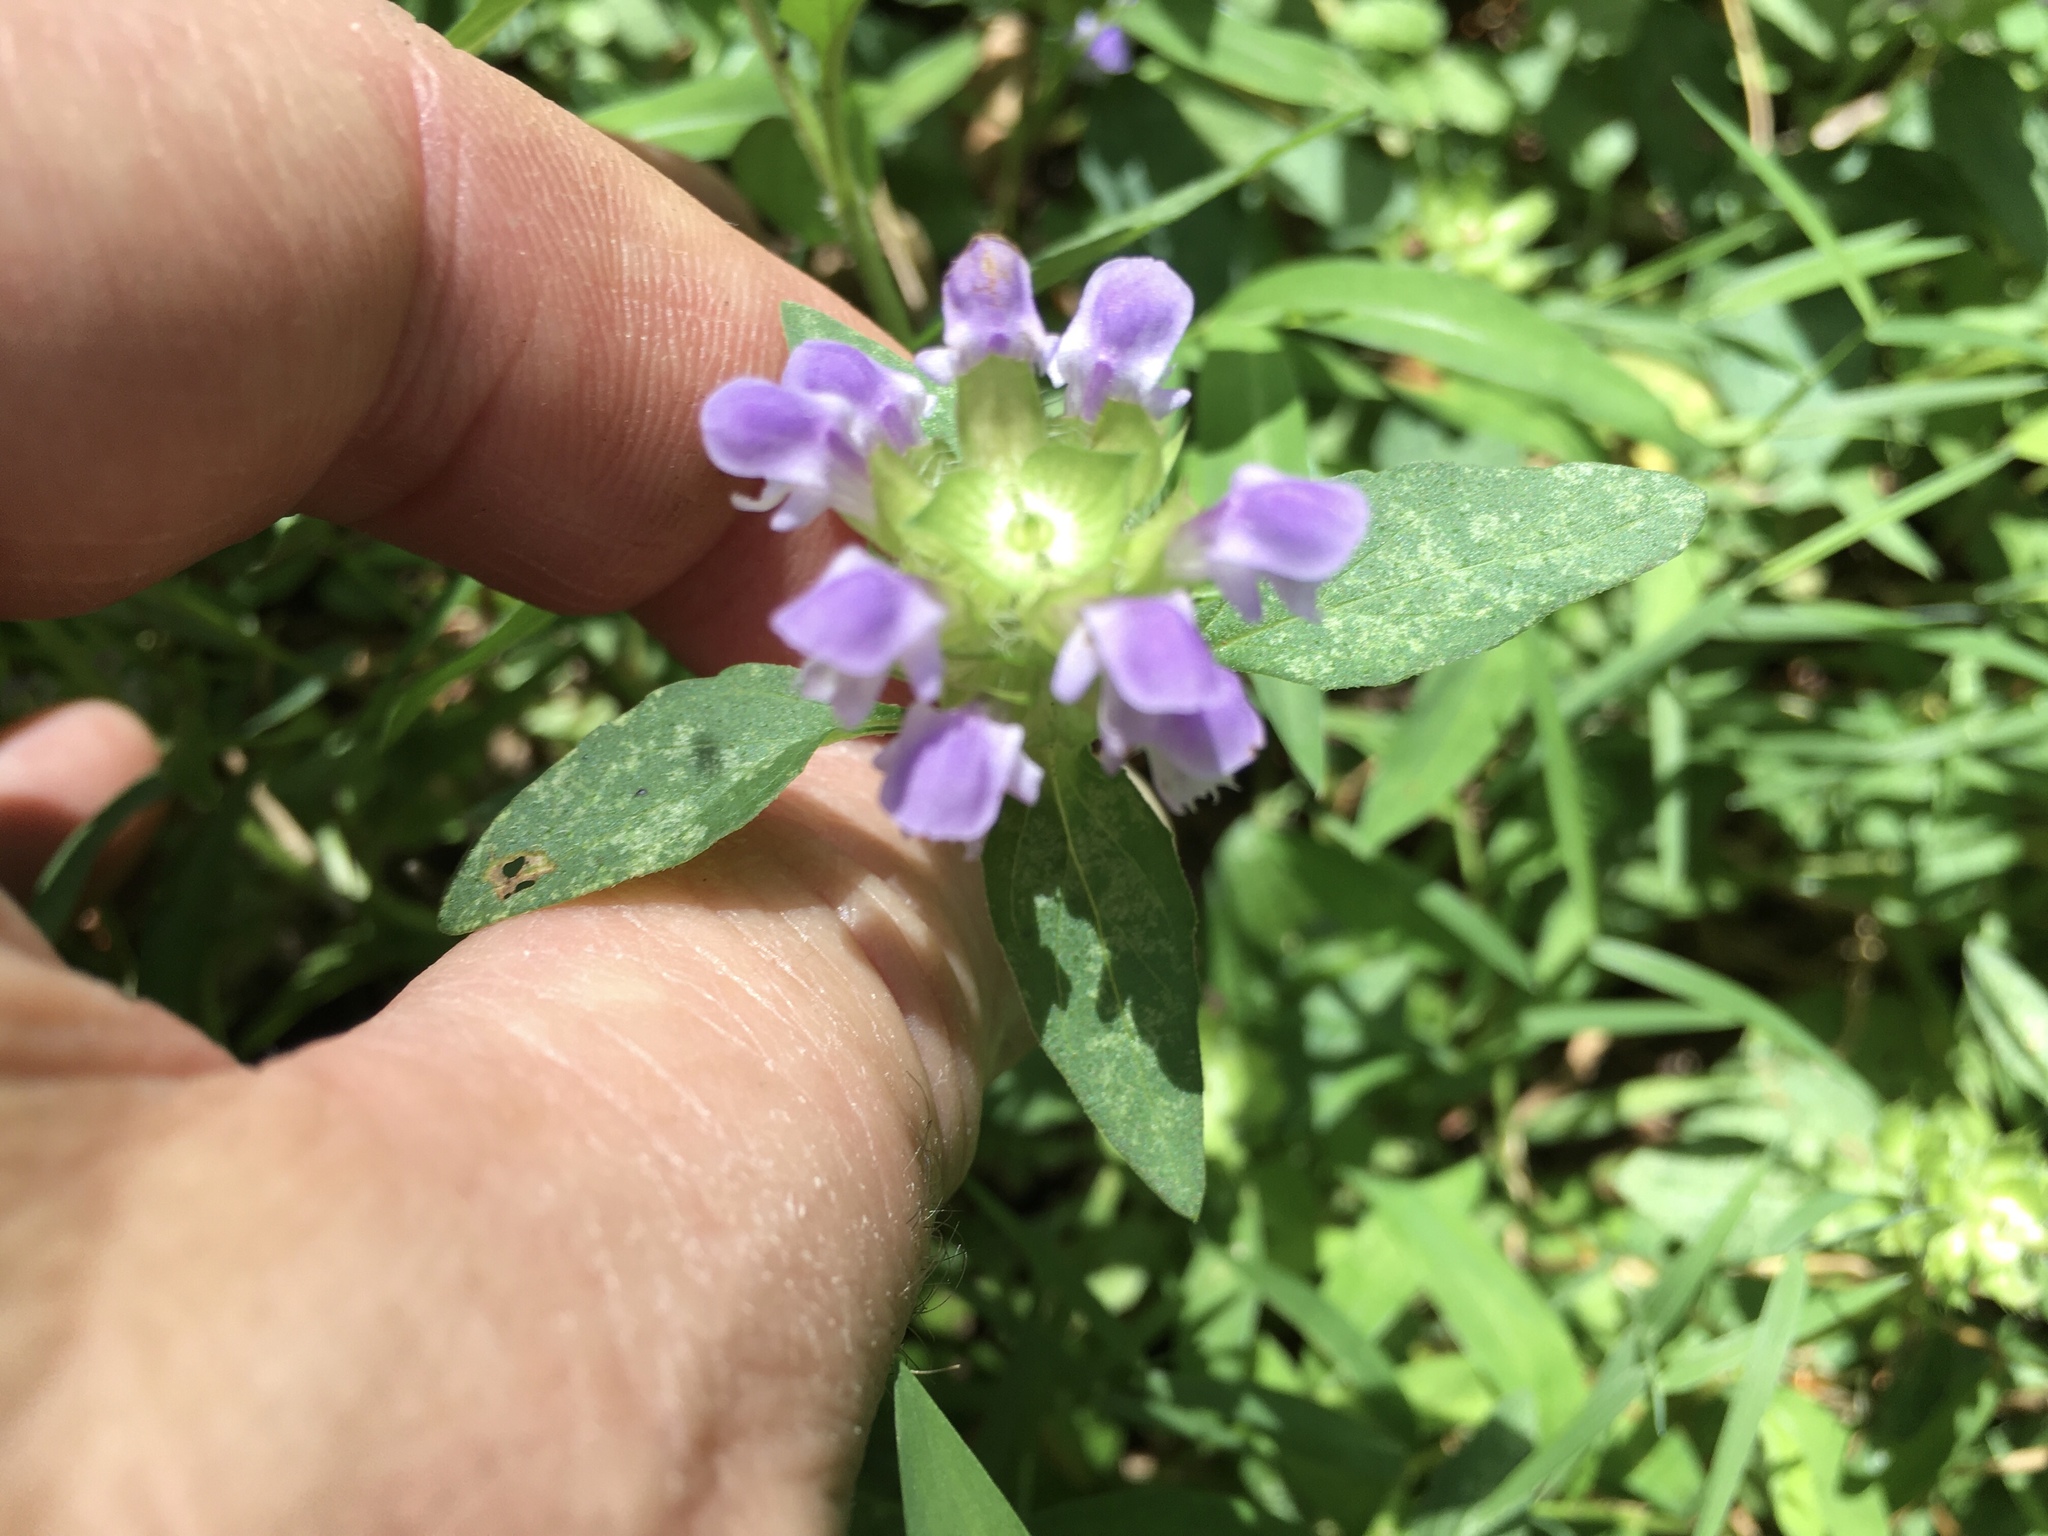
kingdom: Plantae
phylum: Tracheophyta
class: Magnoliopsida
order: Lamiales
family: Lamiaceae
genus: Prunella
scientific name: Prunella vulgaris
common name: Heal-all
